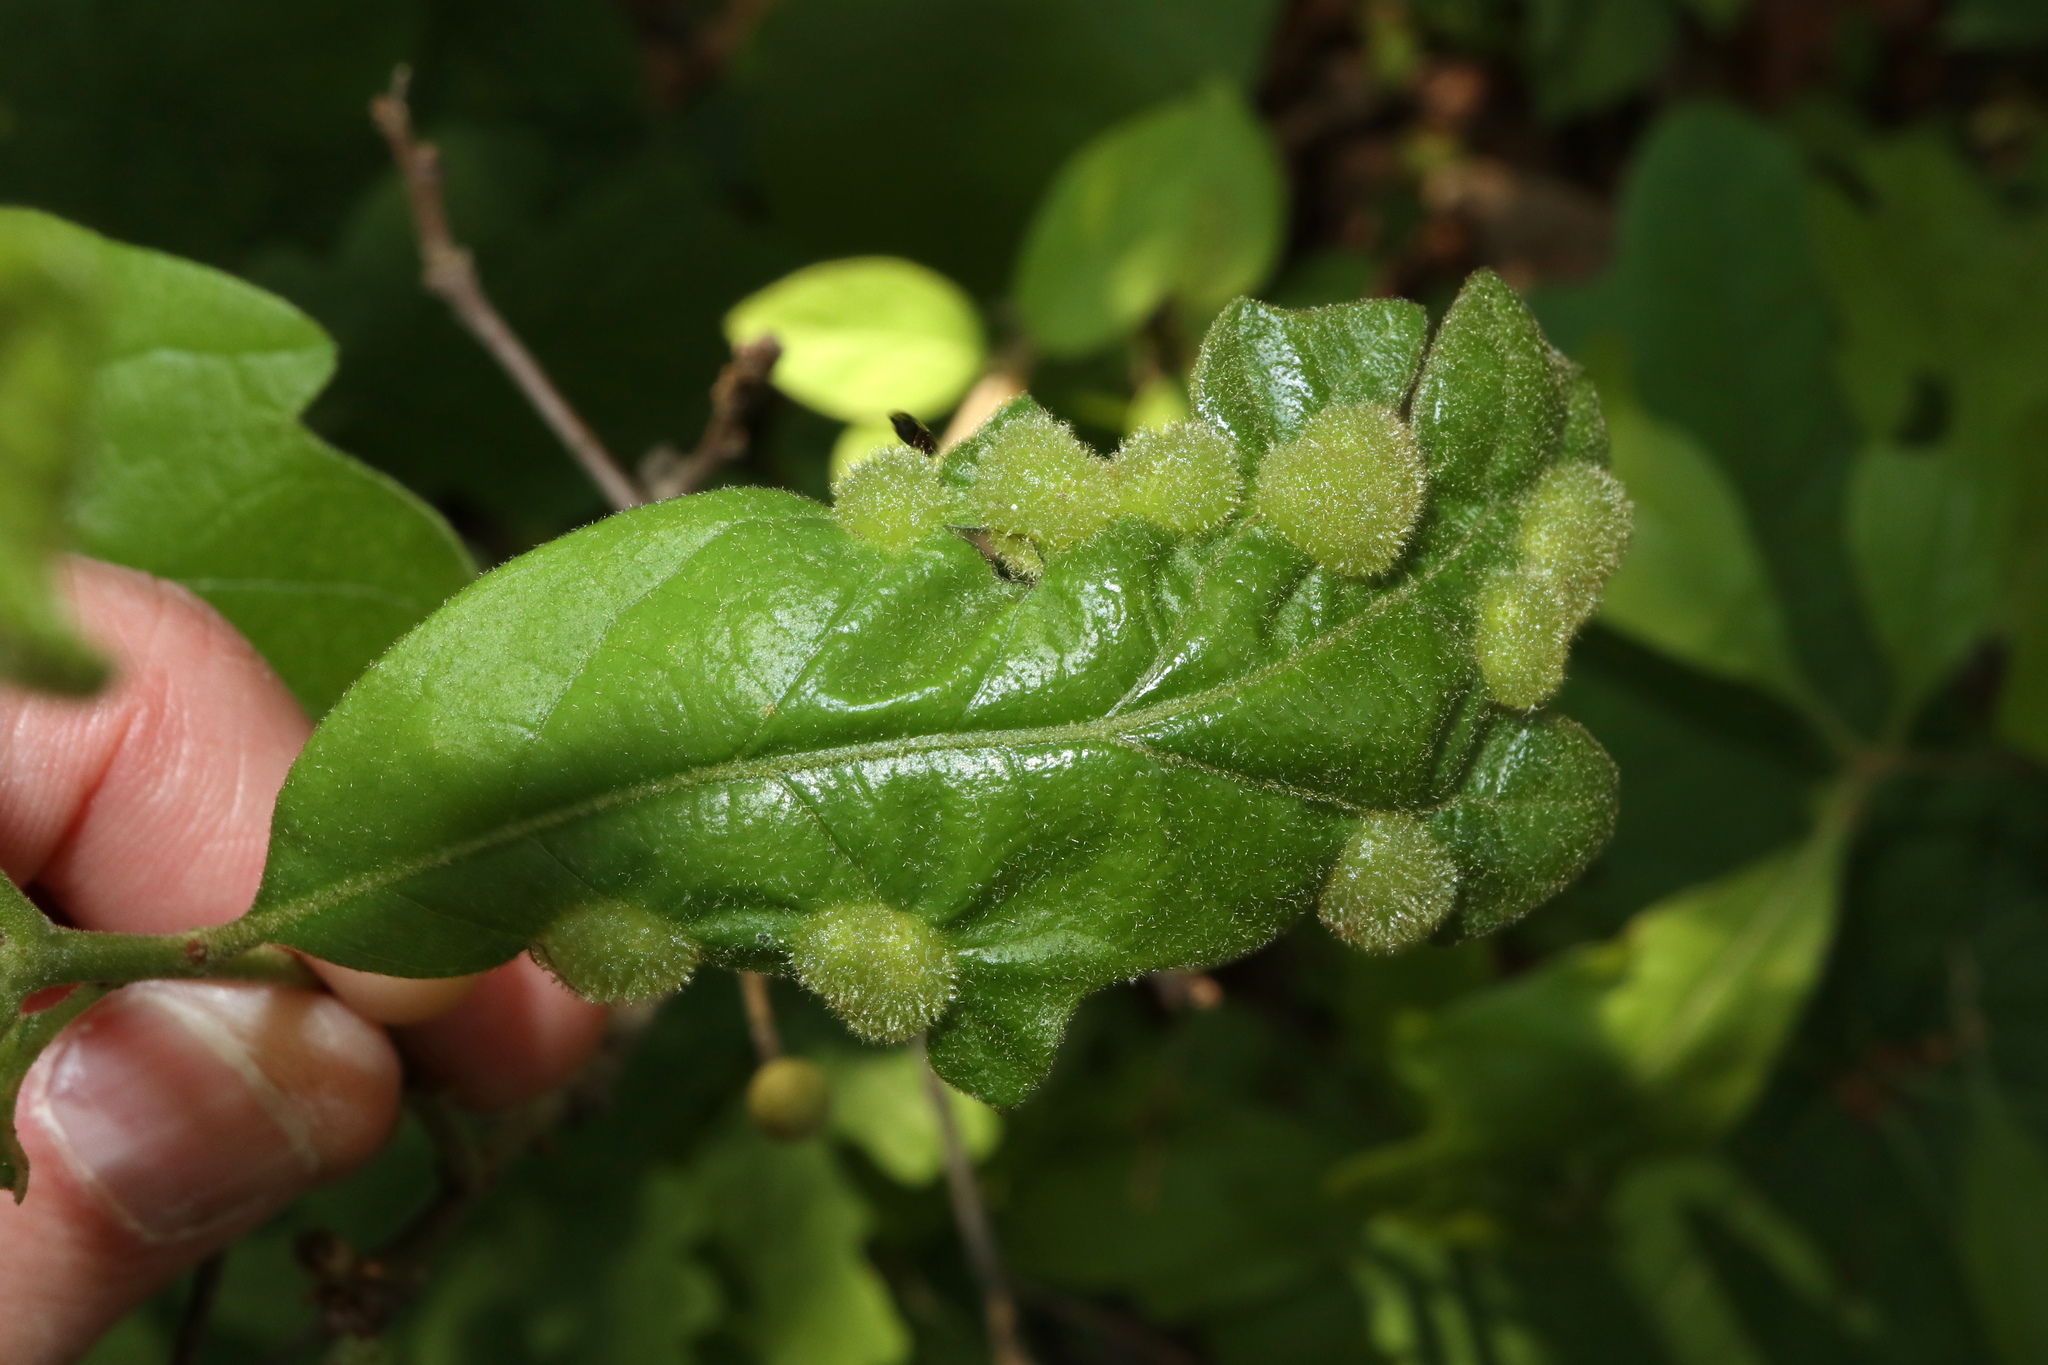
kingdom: Animalia
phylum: Arthropoda
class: Insecta
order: Hymenoptera
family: Cynipidae
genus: Neuroterus
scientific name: Neuroterus quercusirregularis
